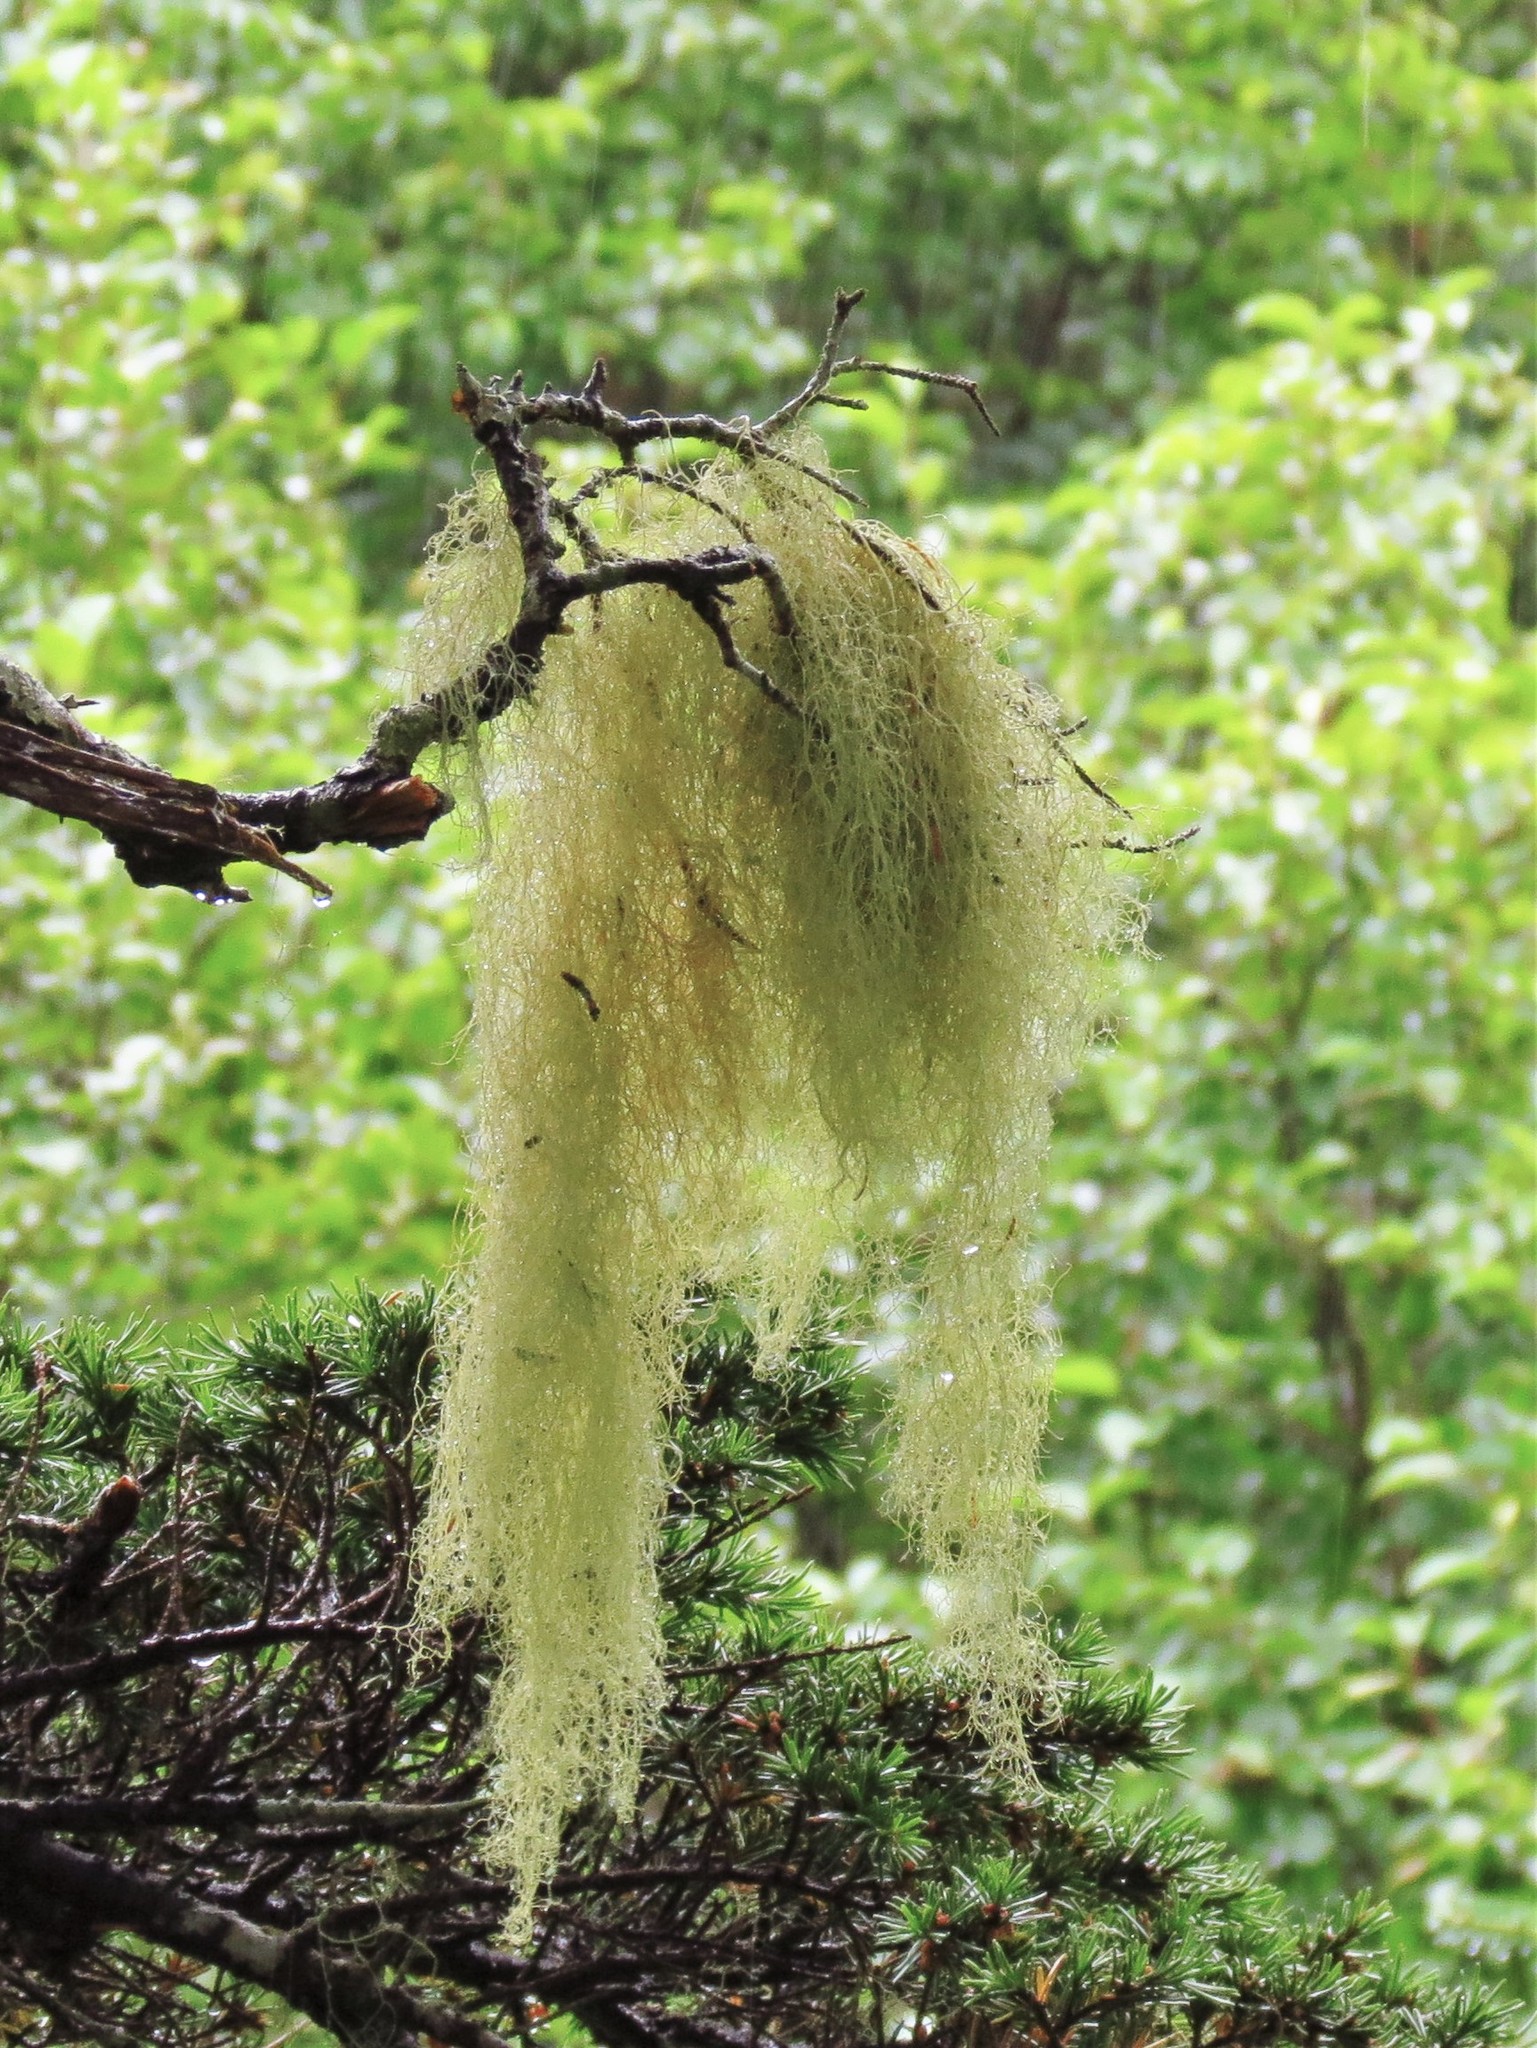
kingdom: Fungi
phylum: Ascomycota
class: Lecanoromycetes
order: Lecanorales
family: Parmeliaceae
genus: Alectoria
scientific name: Alectoria sarmentosa
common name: Witch's hair
